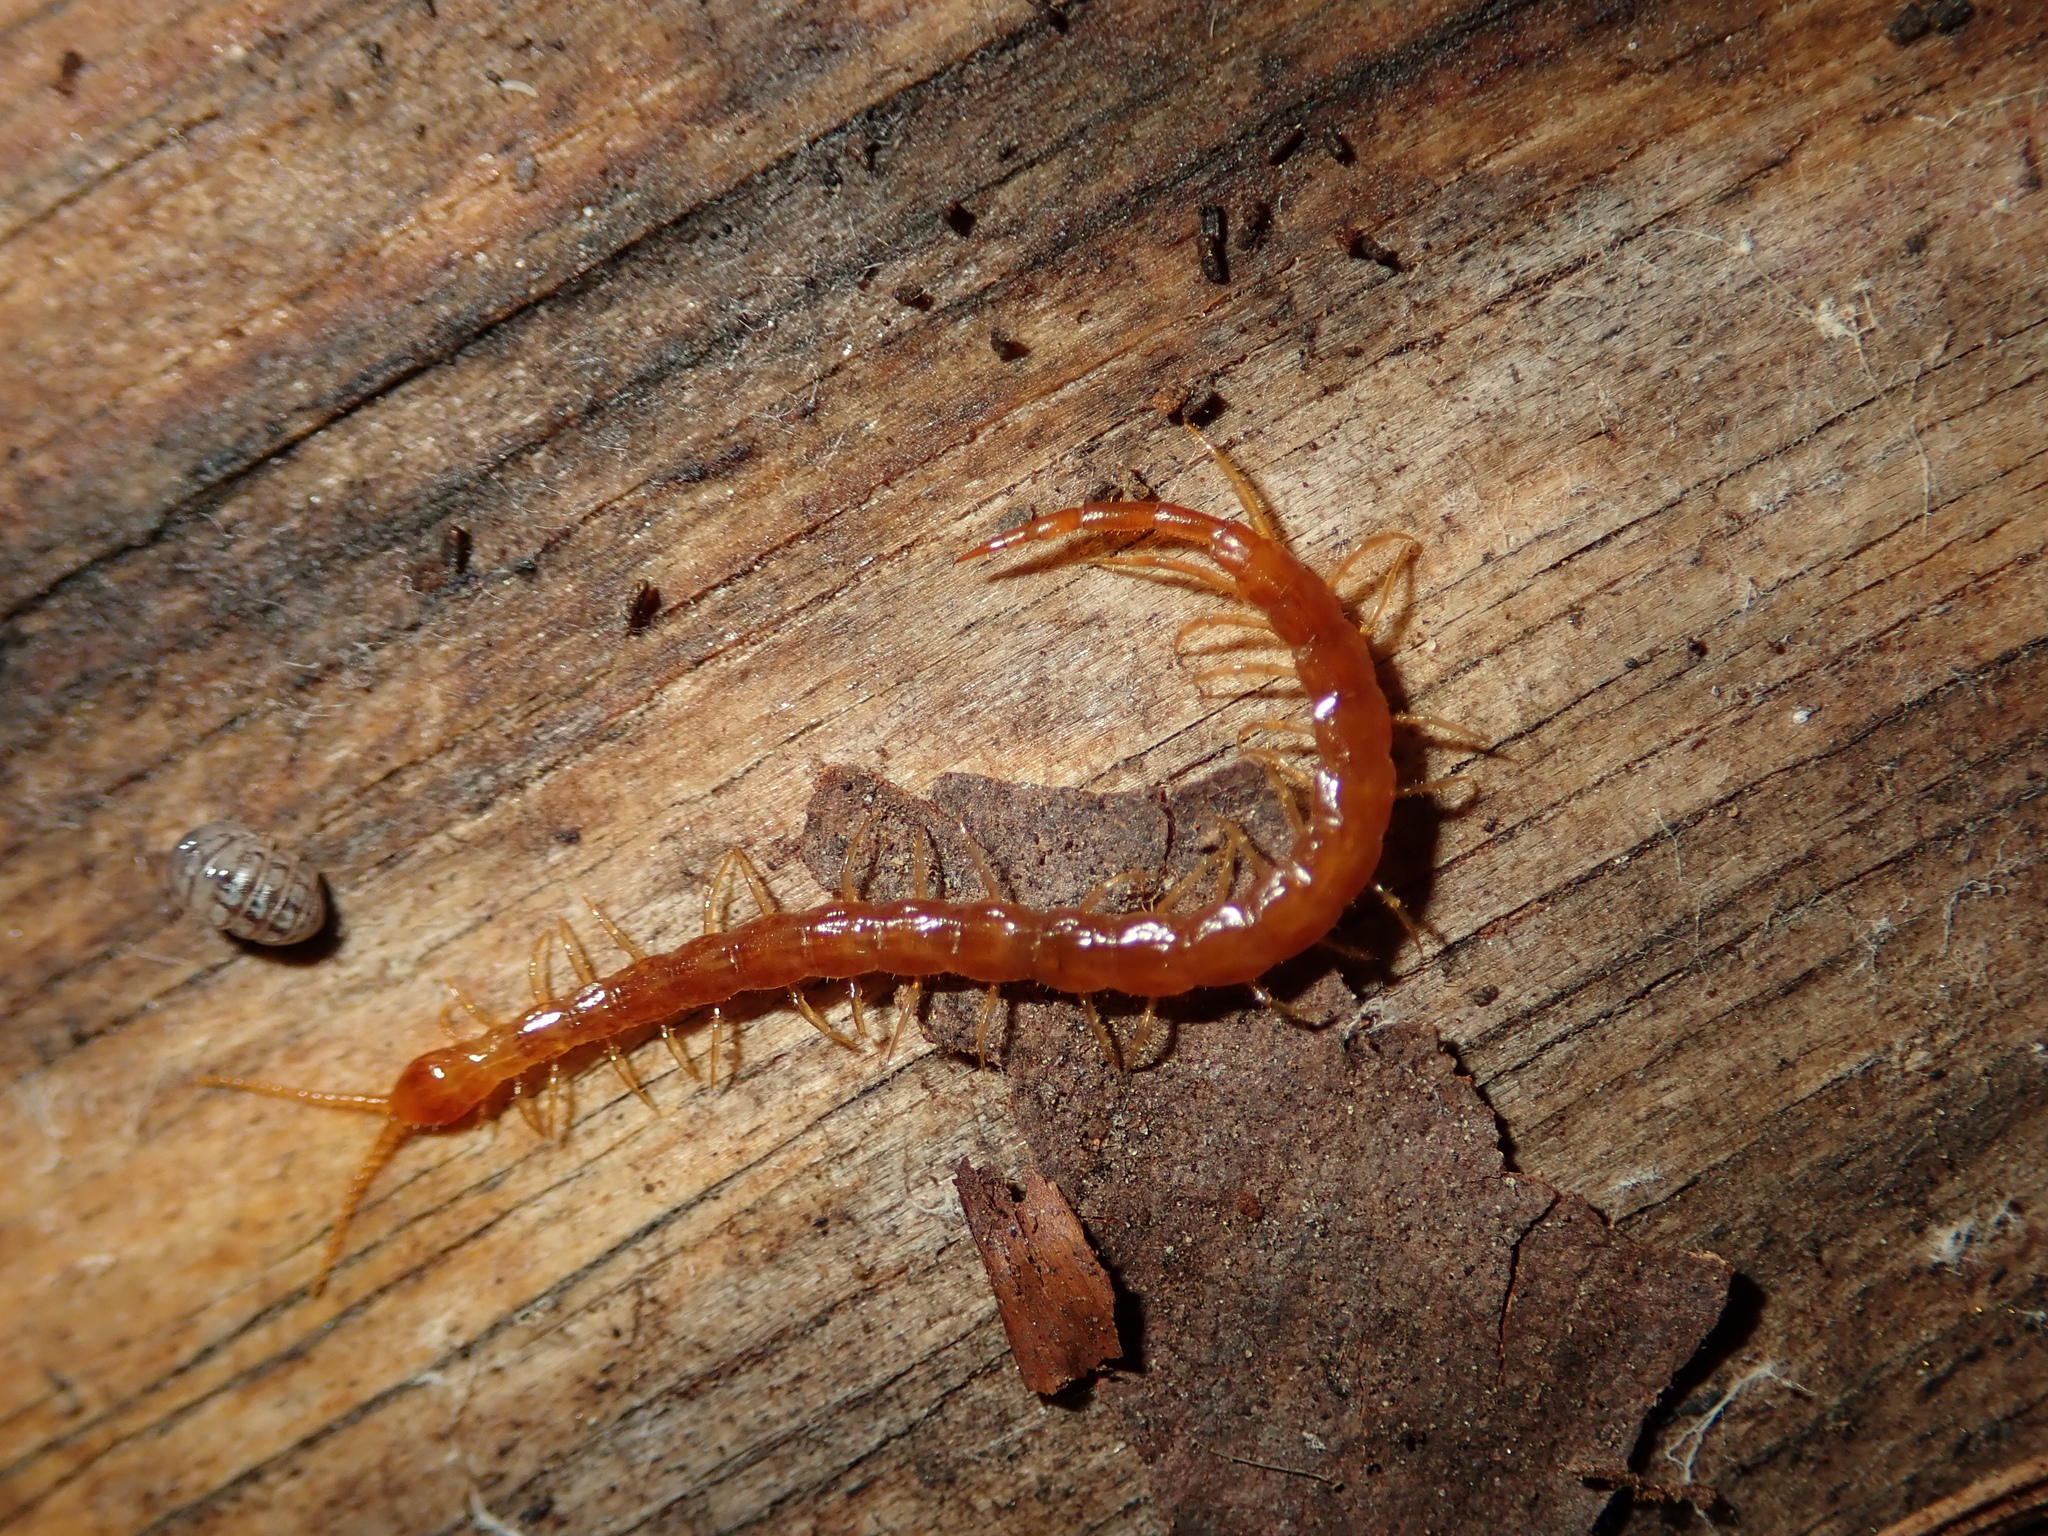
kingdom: Animalia
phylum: Arthropoda
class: Chilopoda
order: Scolopendromorpha
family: Cryptopidae
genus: Cryptops
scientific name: Cryptops
